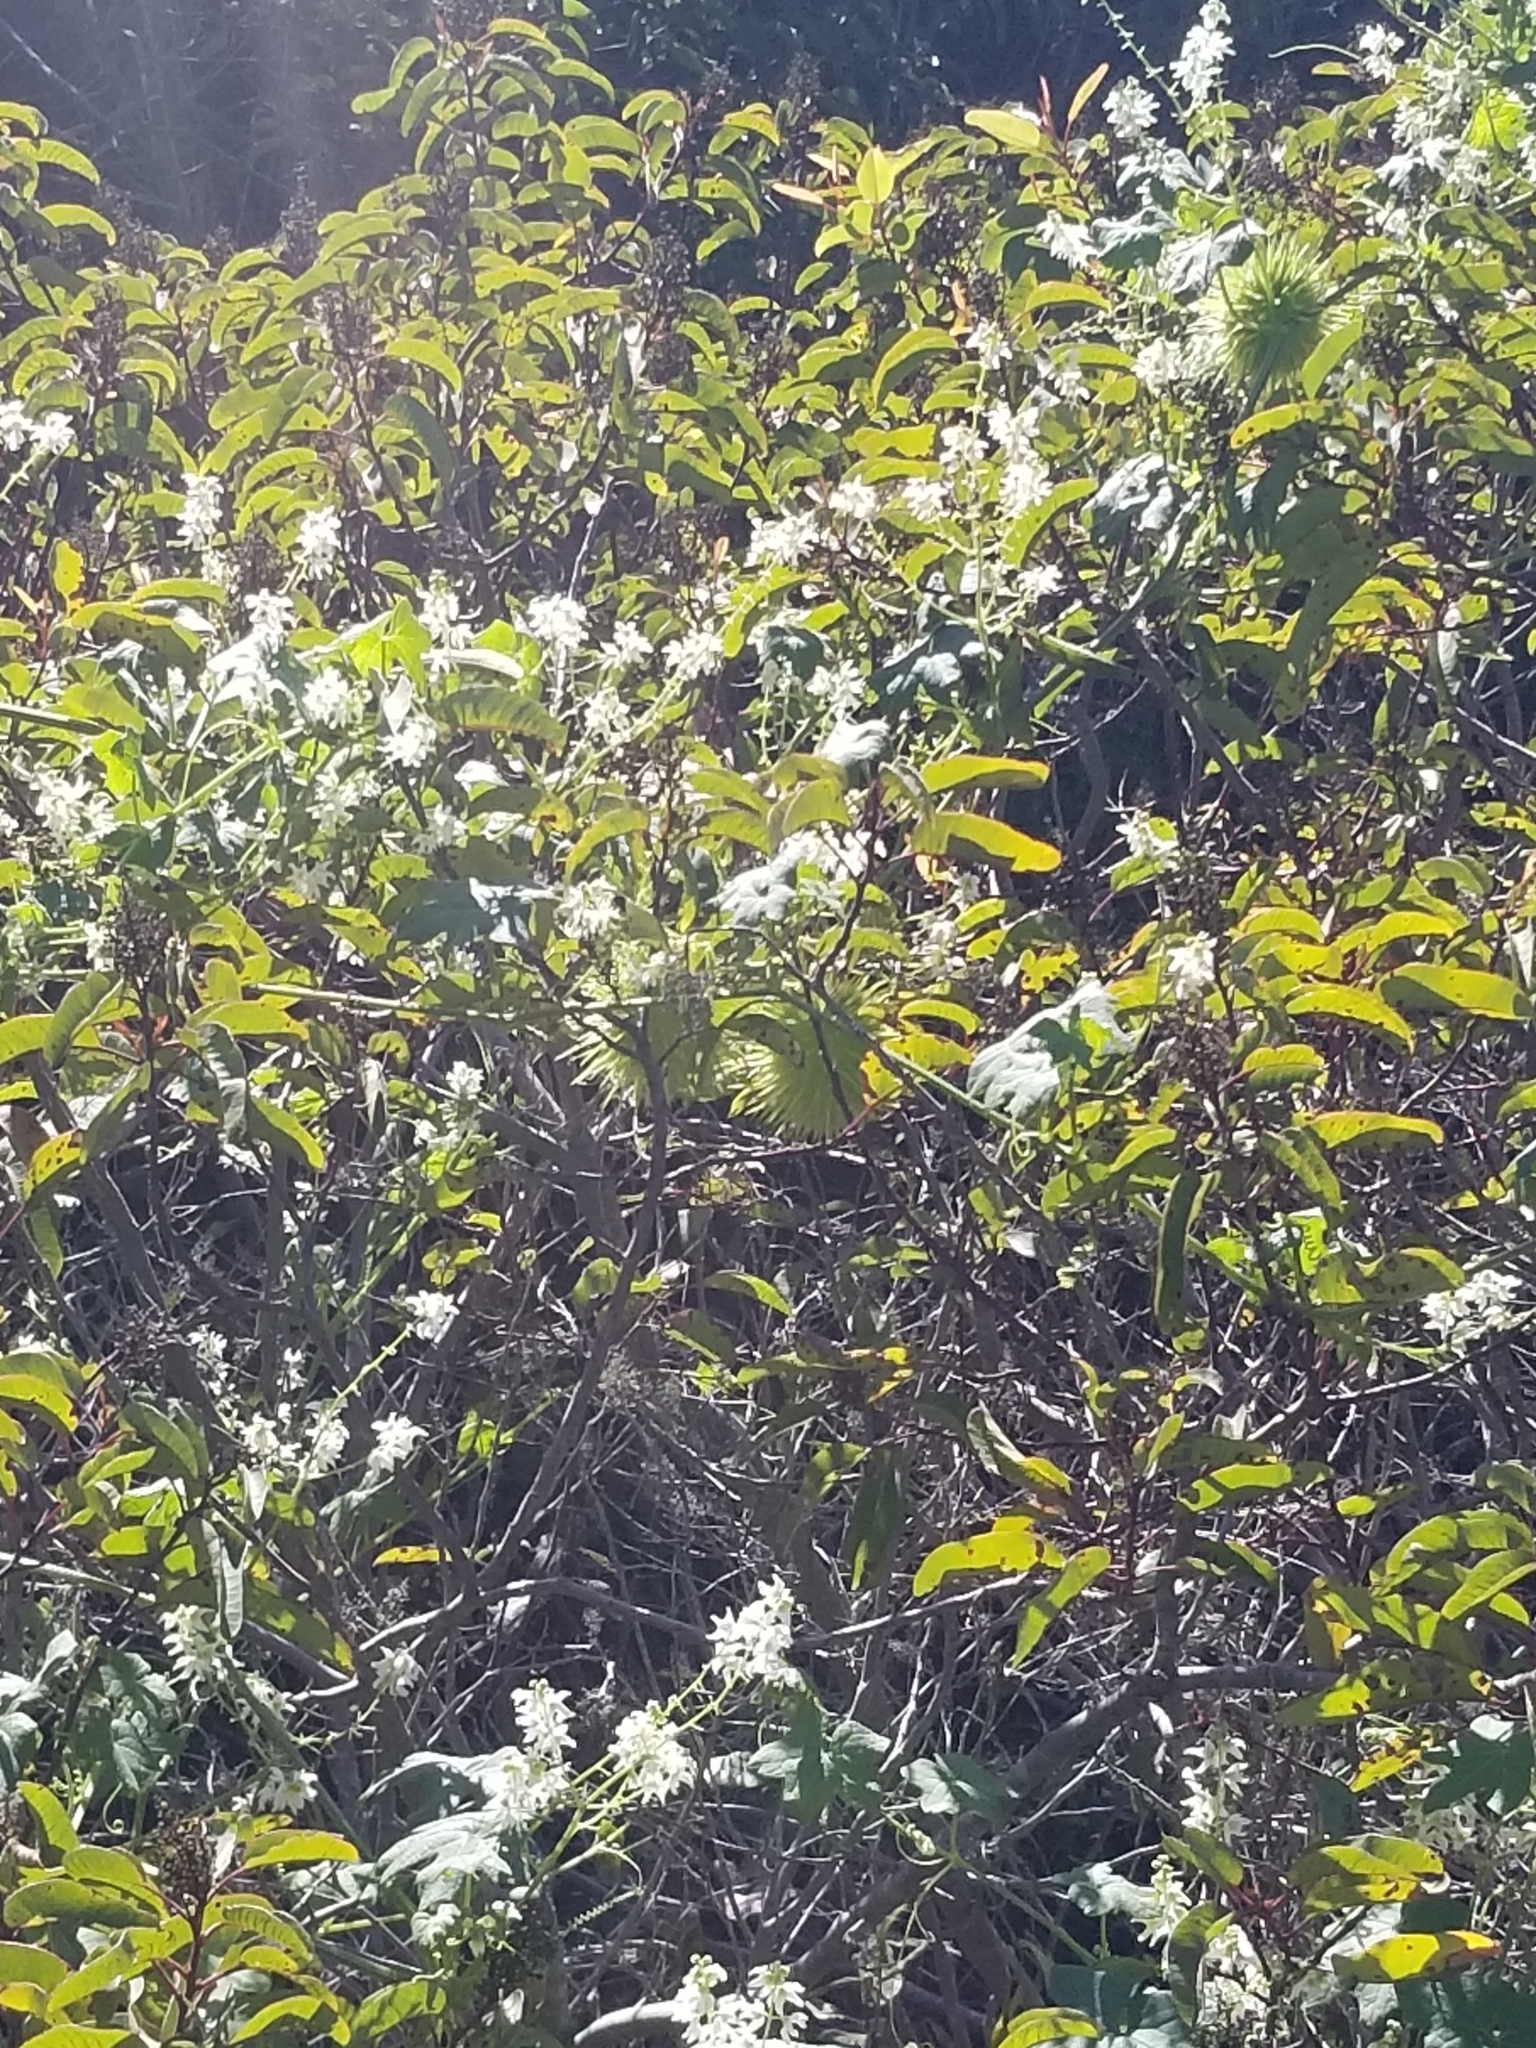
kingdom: Plantae
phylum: Tracheophyta
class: Magnoliopsida
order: Cucurbitales
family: Cucurbitaceae
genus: Marah
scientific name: Marah macrocarpa
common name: Cucamonga manroot
